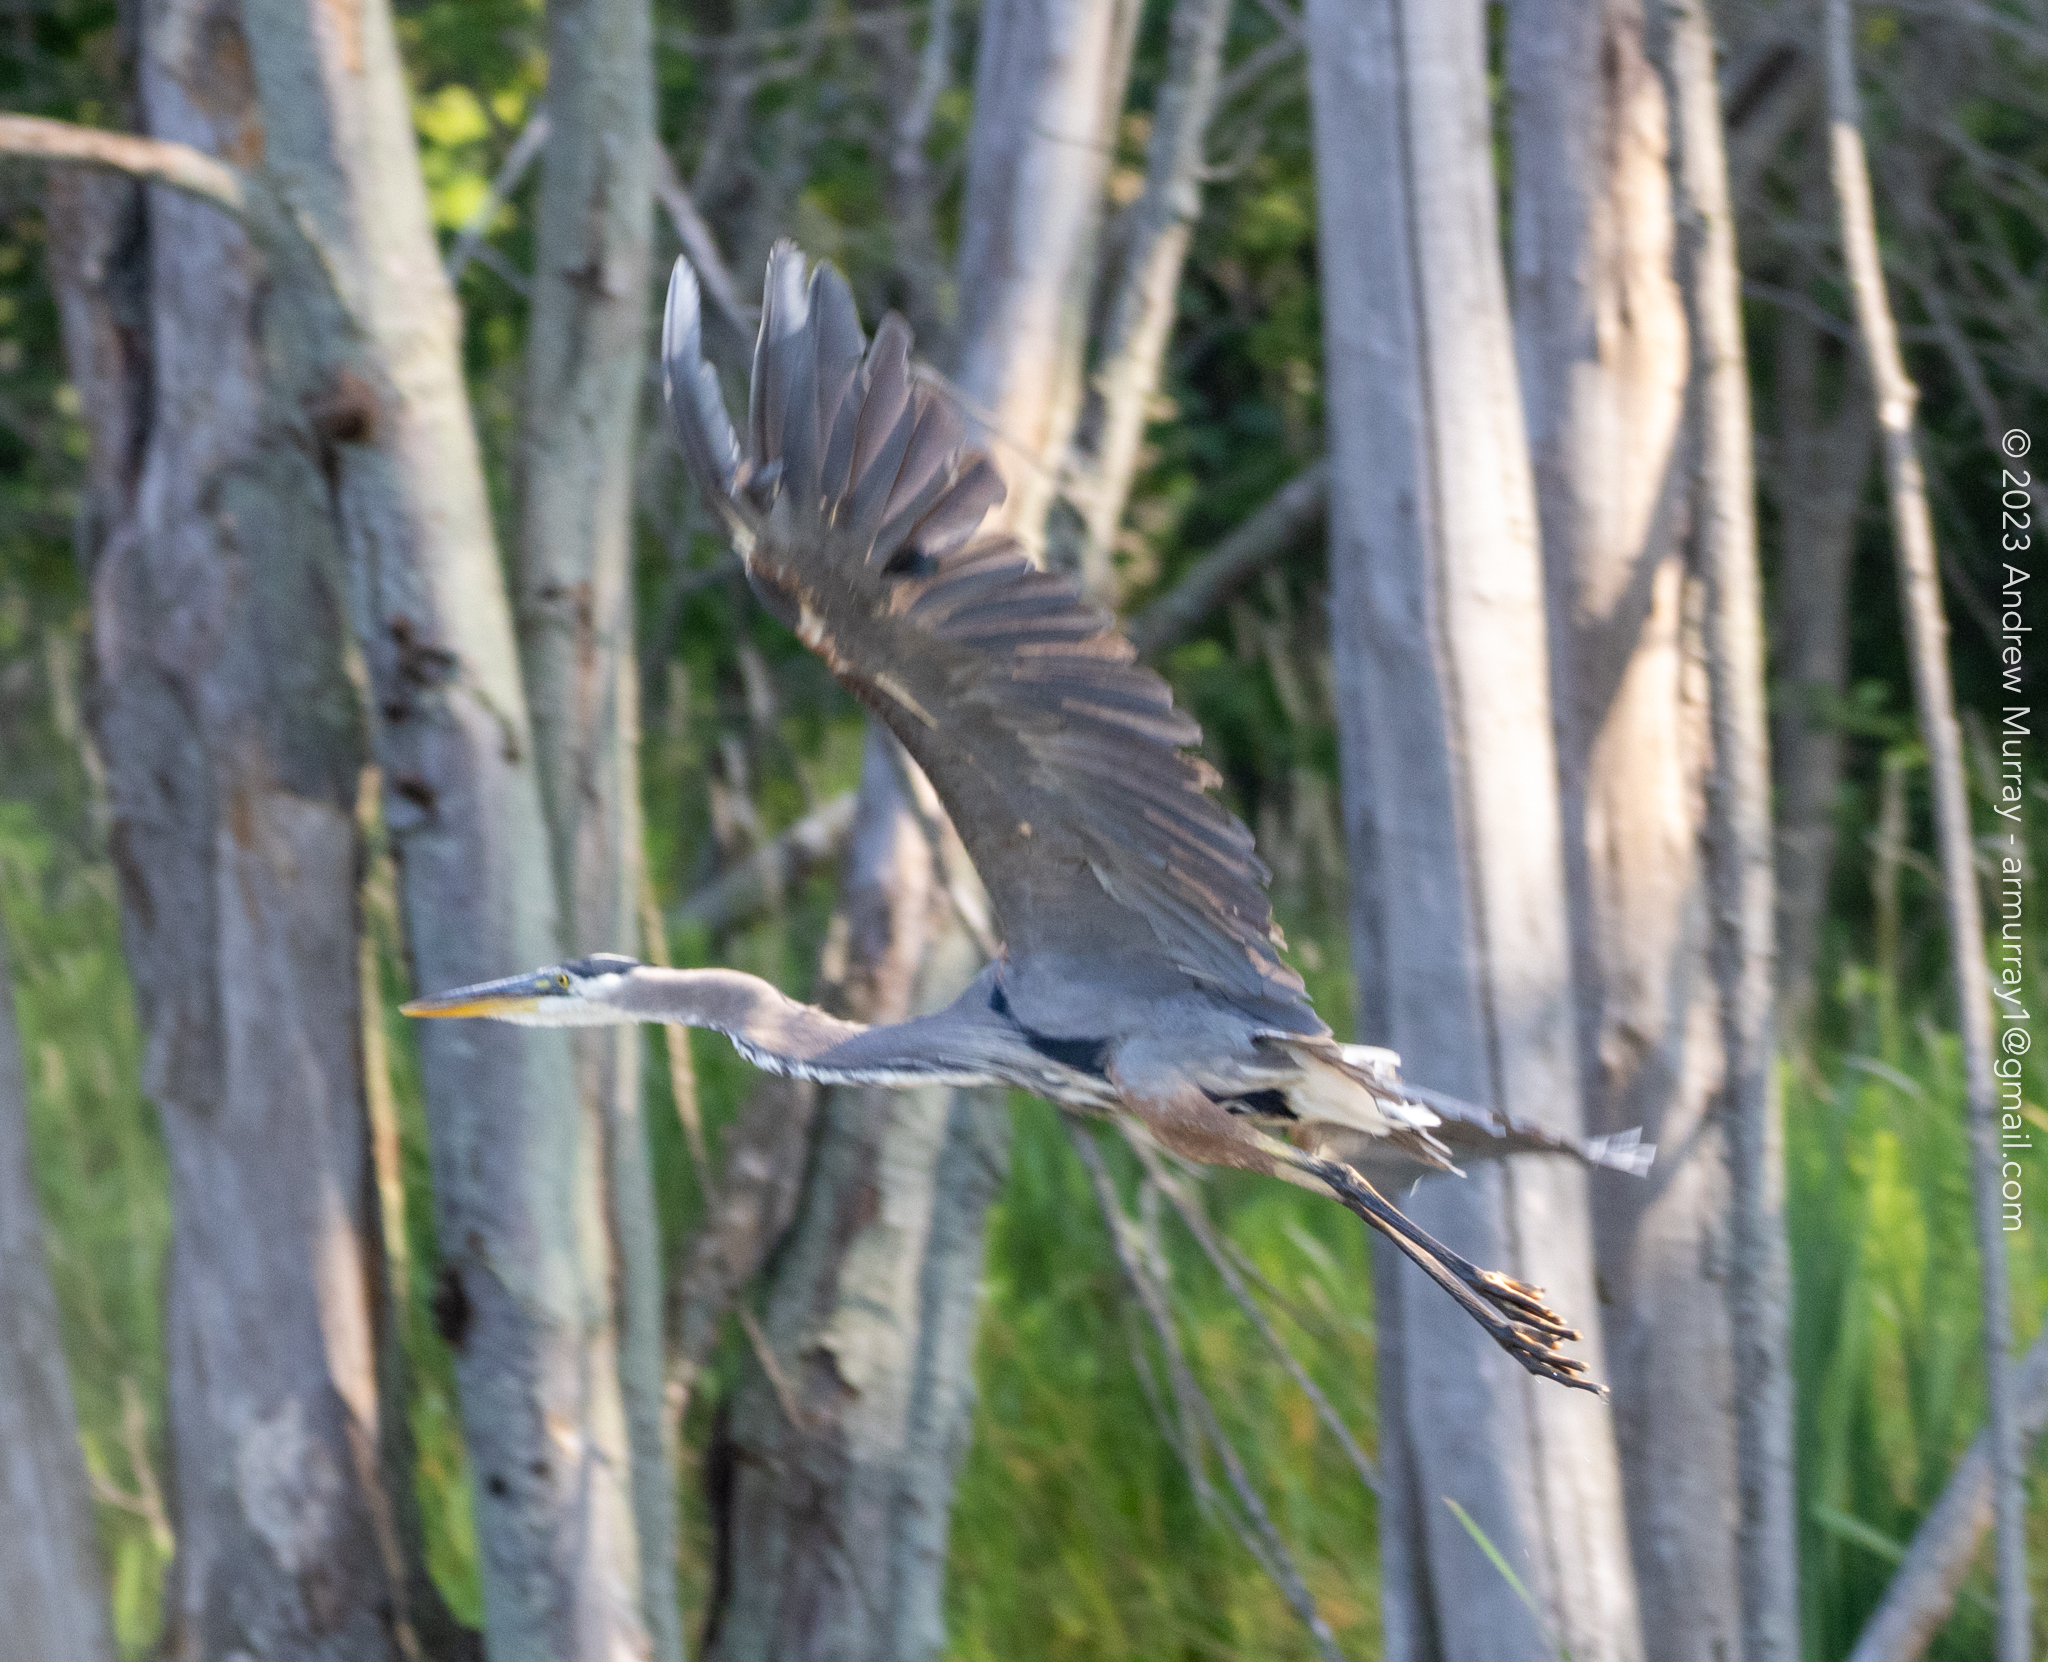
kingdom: Animalia
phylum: Chordata
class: Aves
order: Pelecaniformes
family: Ardeidae
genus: Ardea
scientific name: Ardea herodias
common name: Great blue heron
